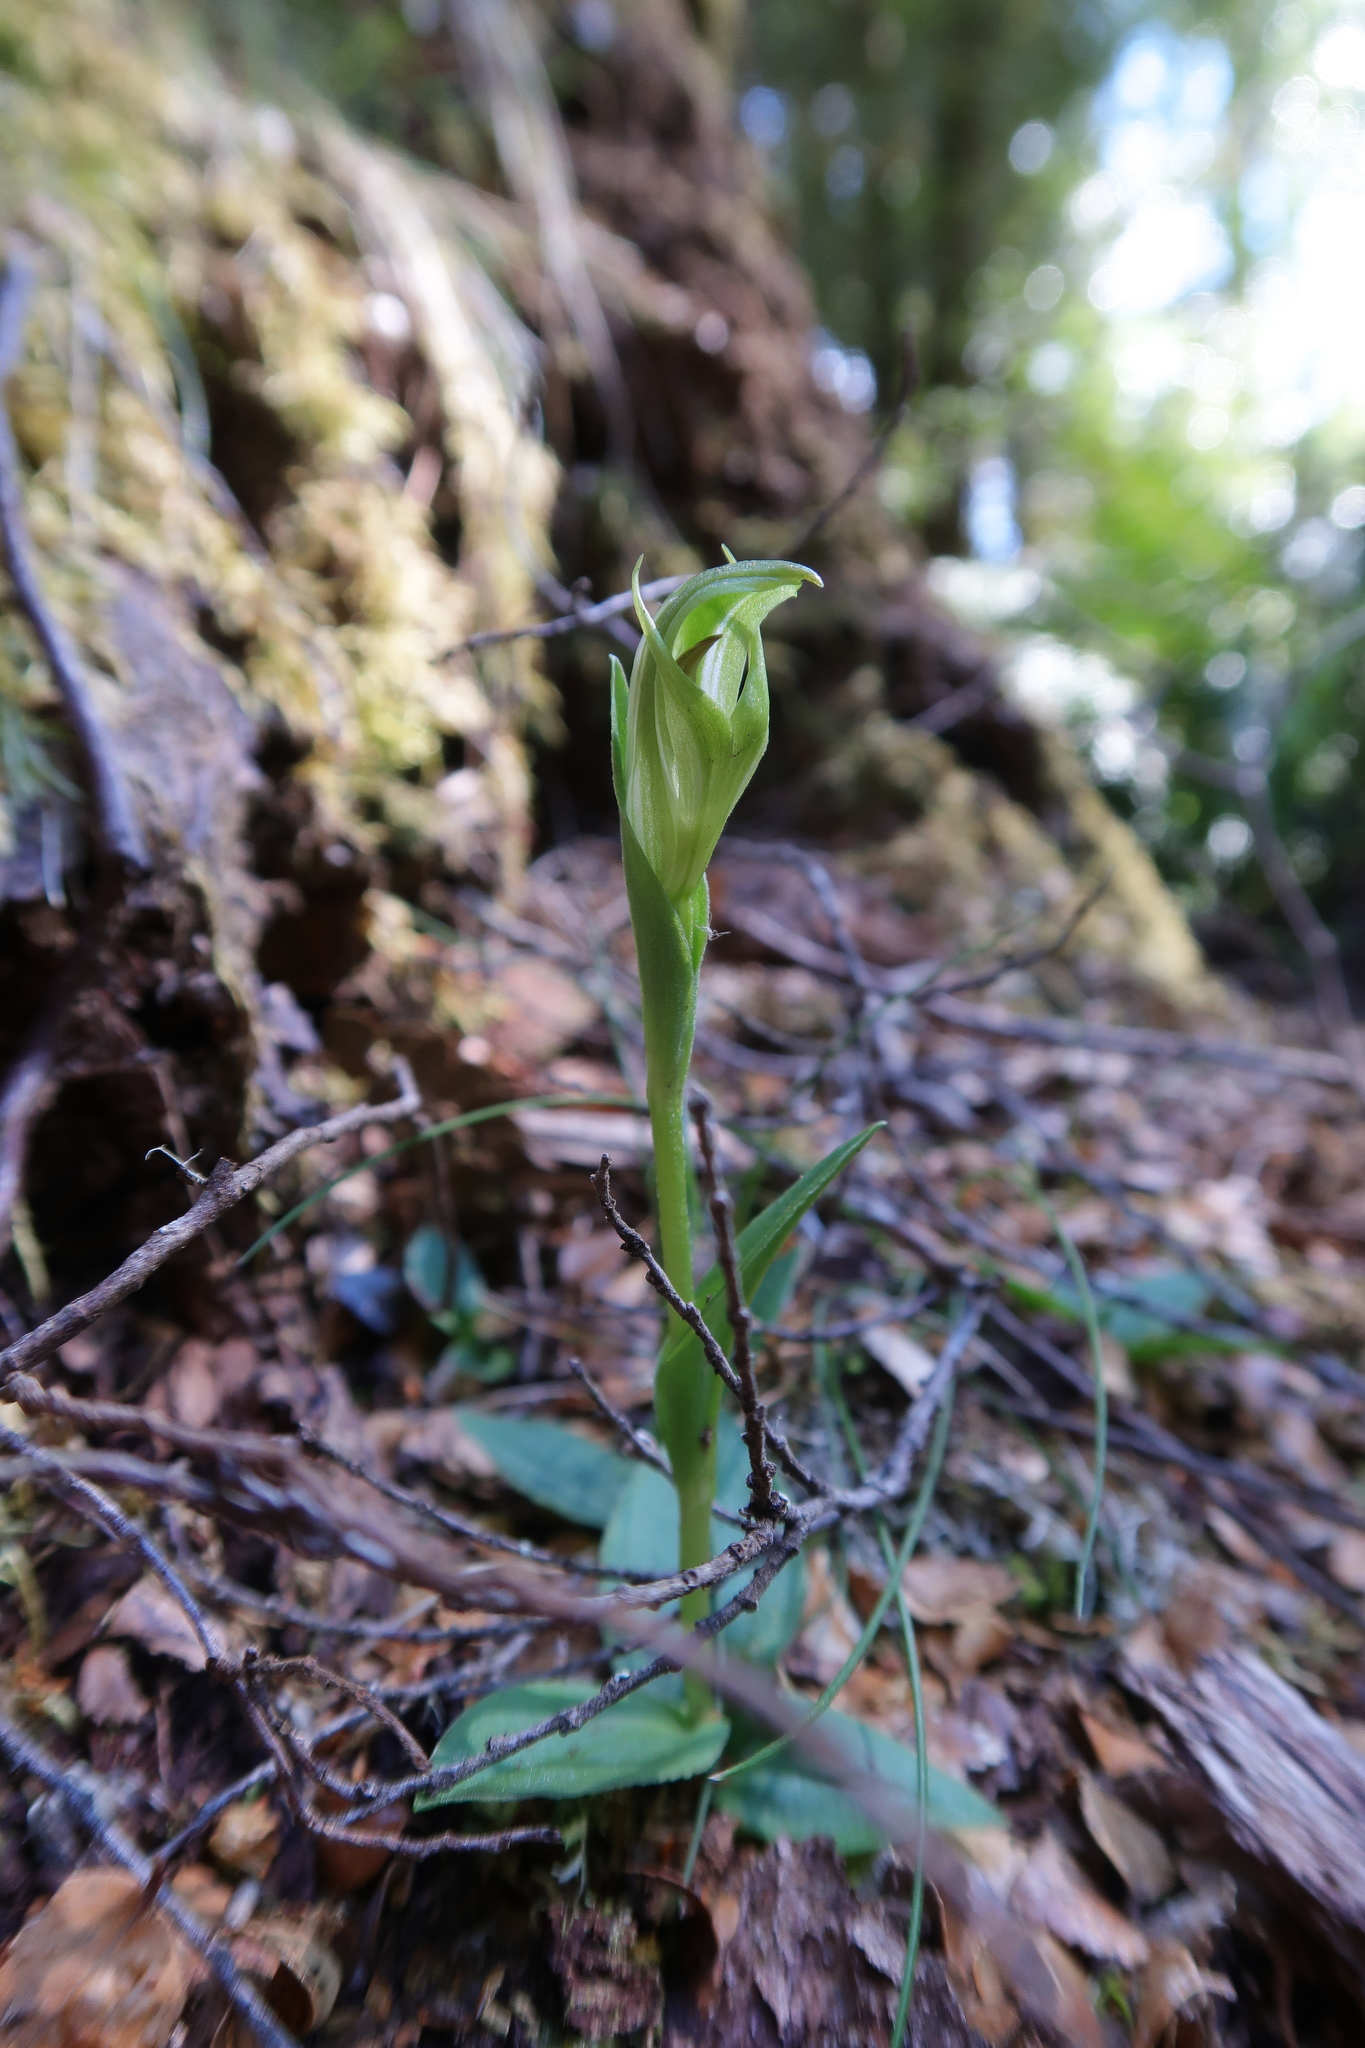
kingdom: Plantae
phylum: Tracheophyta
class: Liliopsida
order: Asparagales
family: Orchidaceae
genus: Pterostylis
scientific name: Pterostylis scabrida
